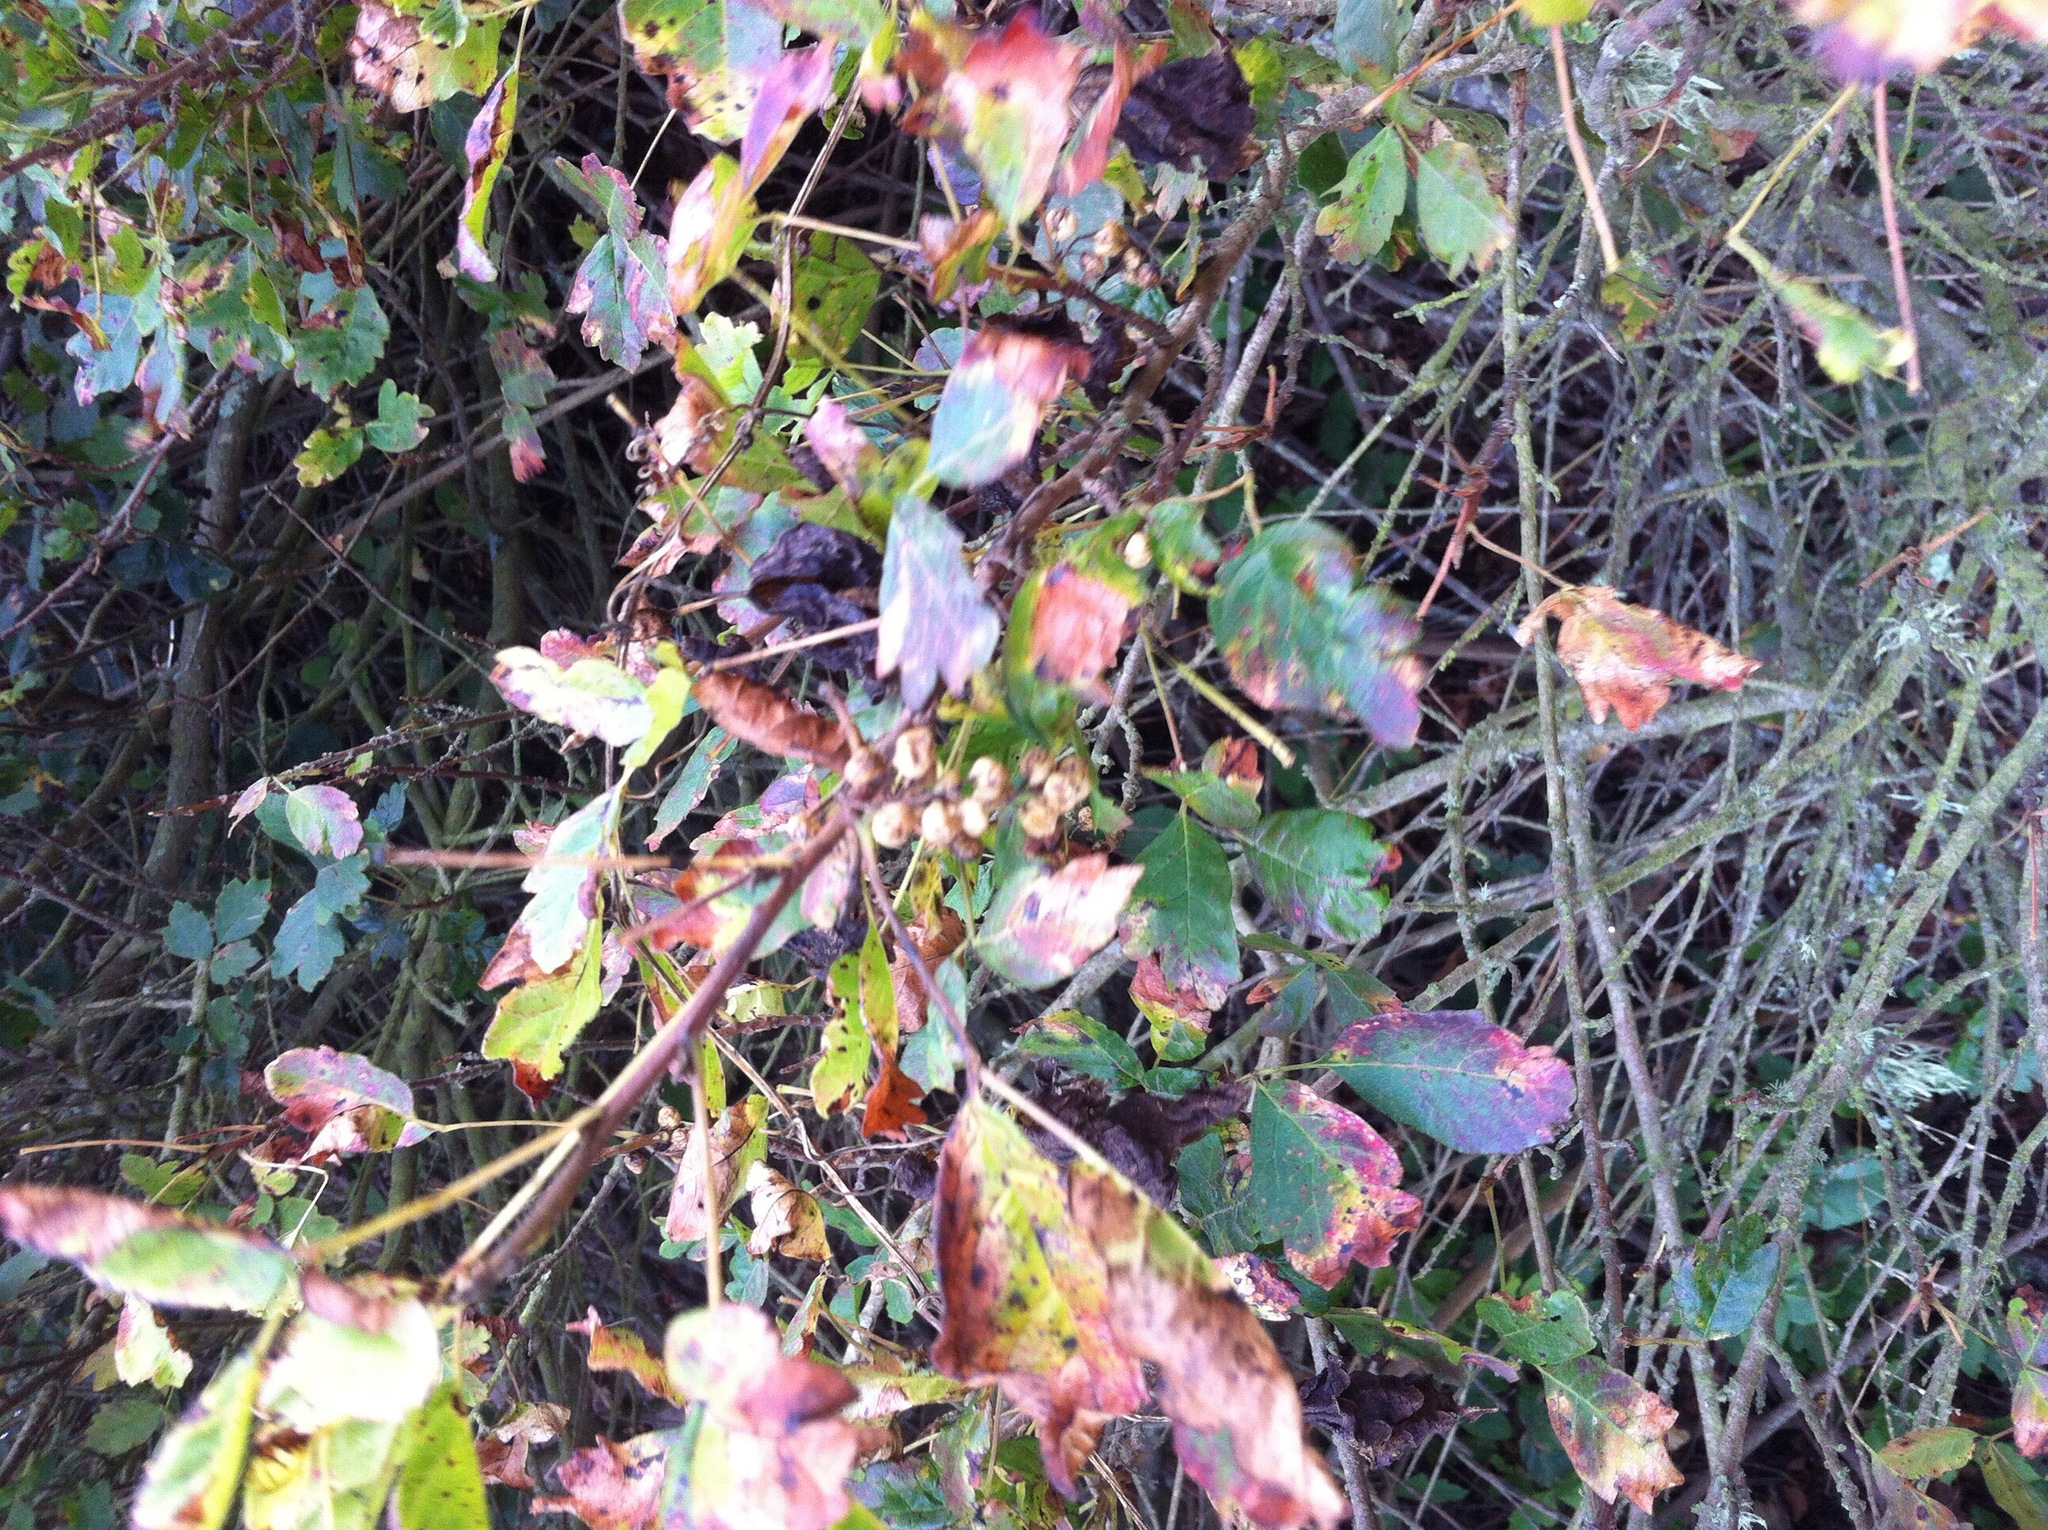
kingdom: Plantae
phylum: Tracheophyta
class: Magnoliopsida
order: Sapindales
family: Anacardiaceae
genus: Toxicodendron
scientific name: Toxicodendron diversilobum
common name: Pacific poison-oak
